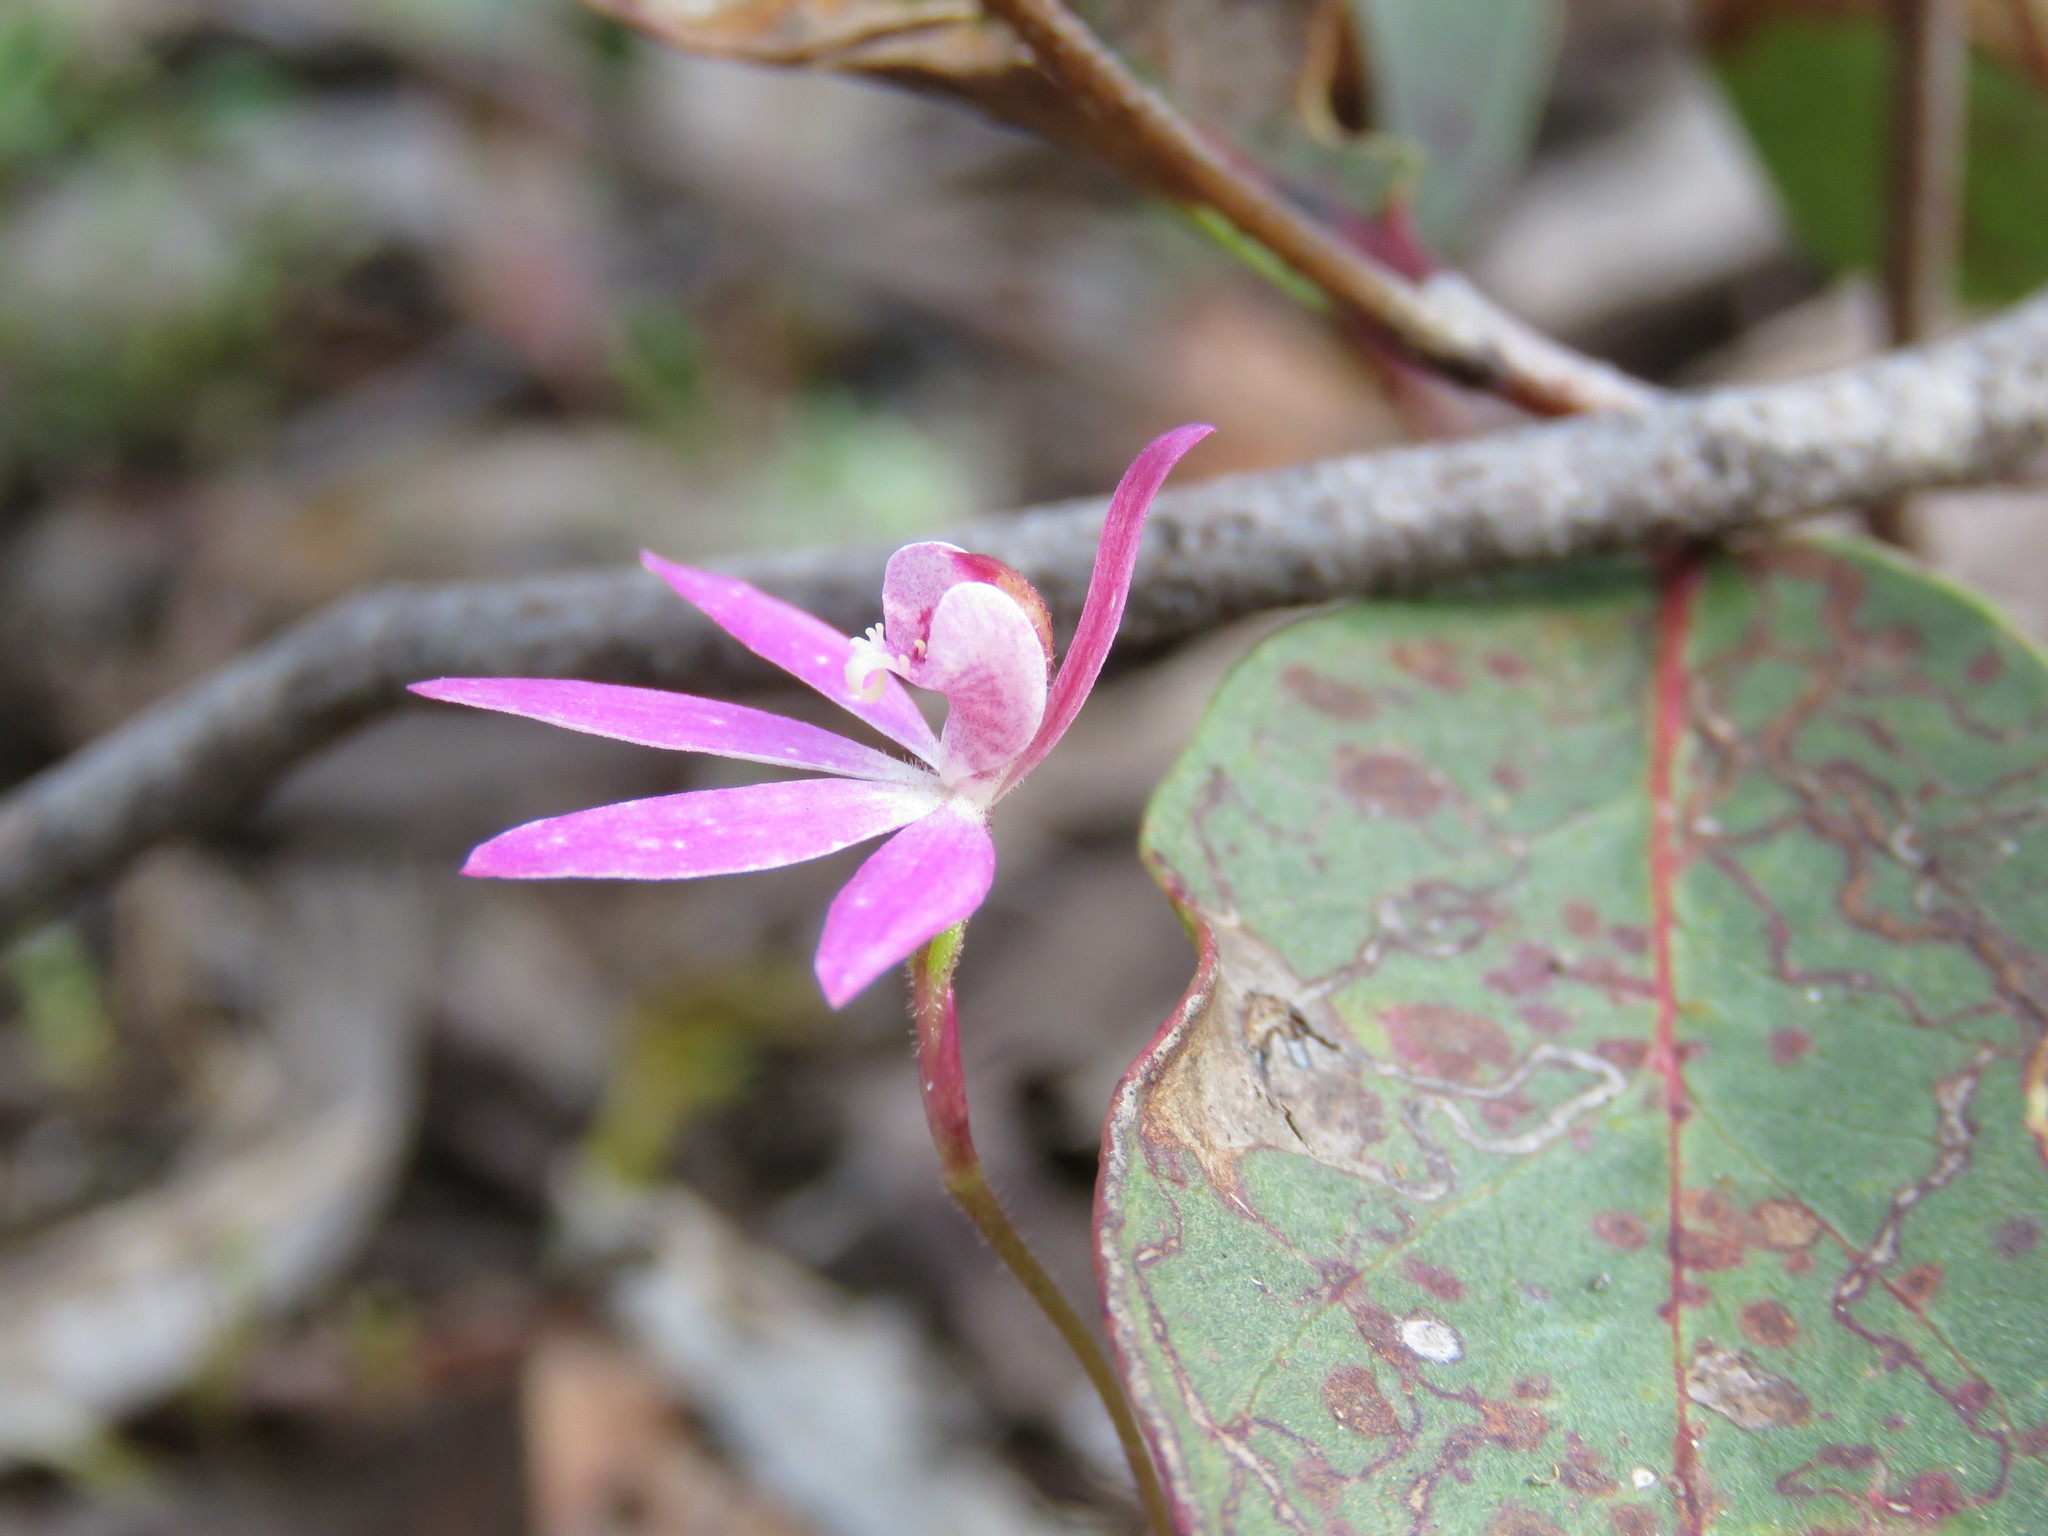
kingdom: Plantae
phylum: Tracheophyta
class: Liliopsida
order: Asparagales
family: Orchidaceae
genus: Caladenia
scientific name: Caladenia carnea
